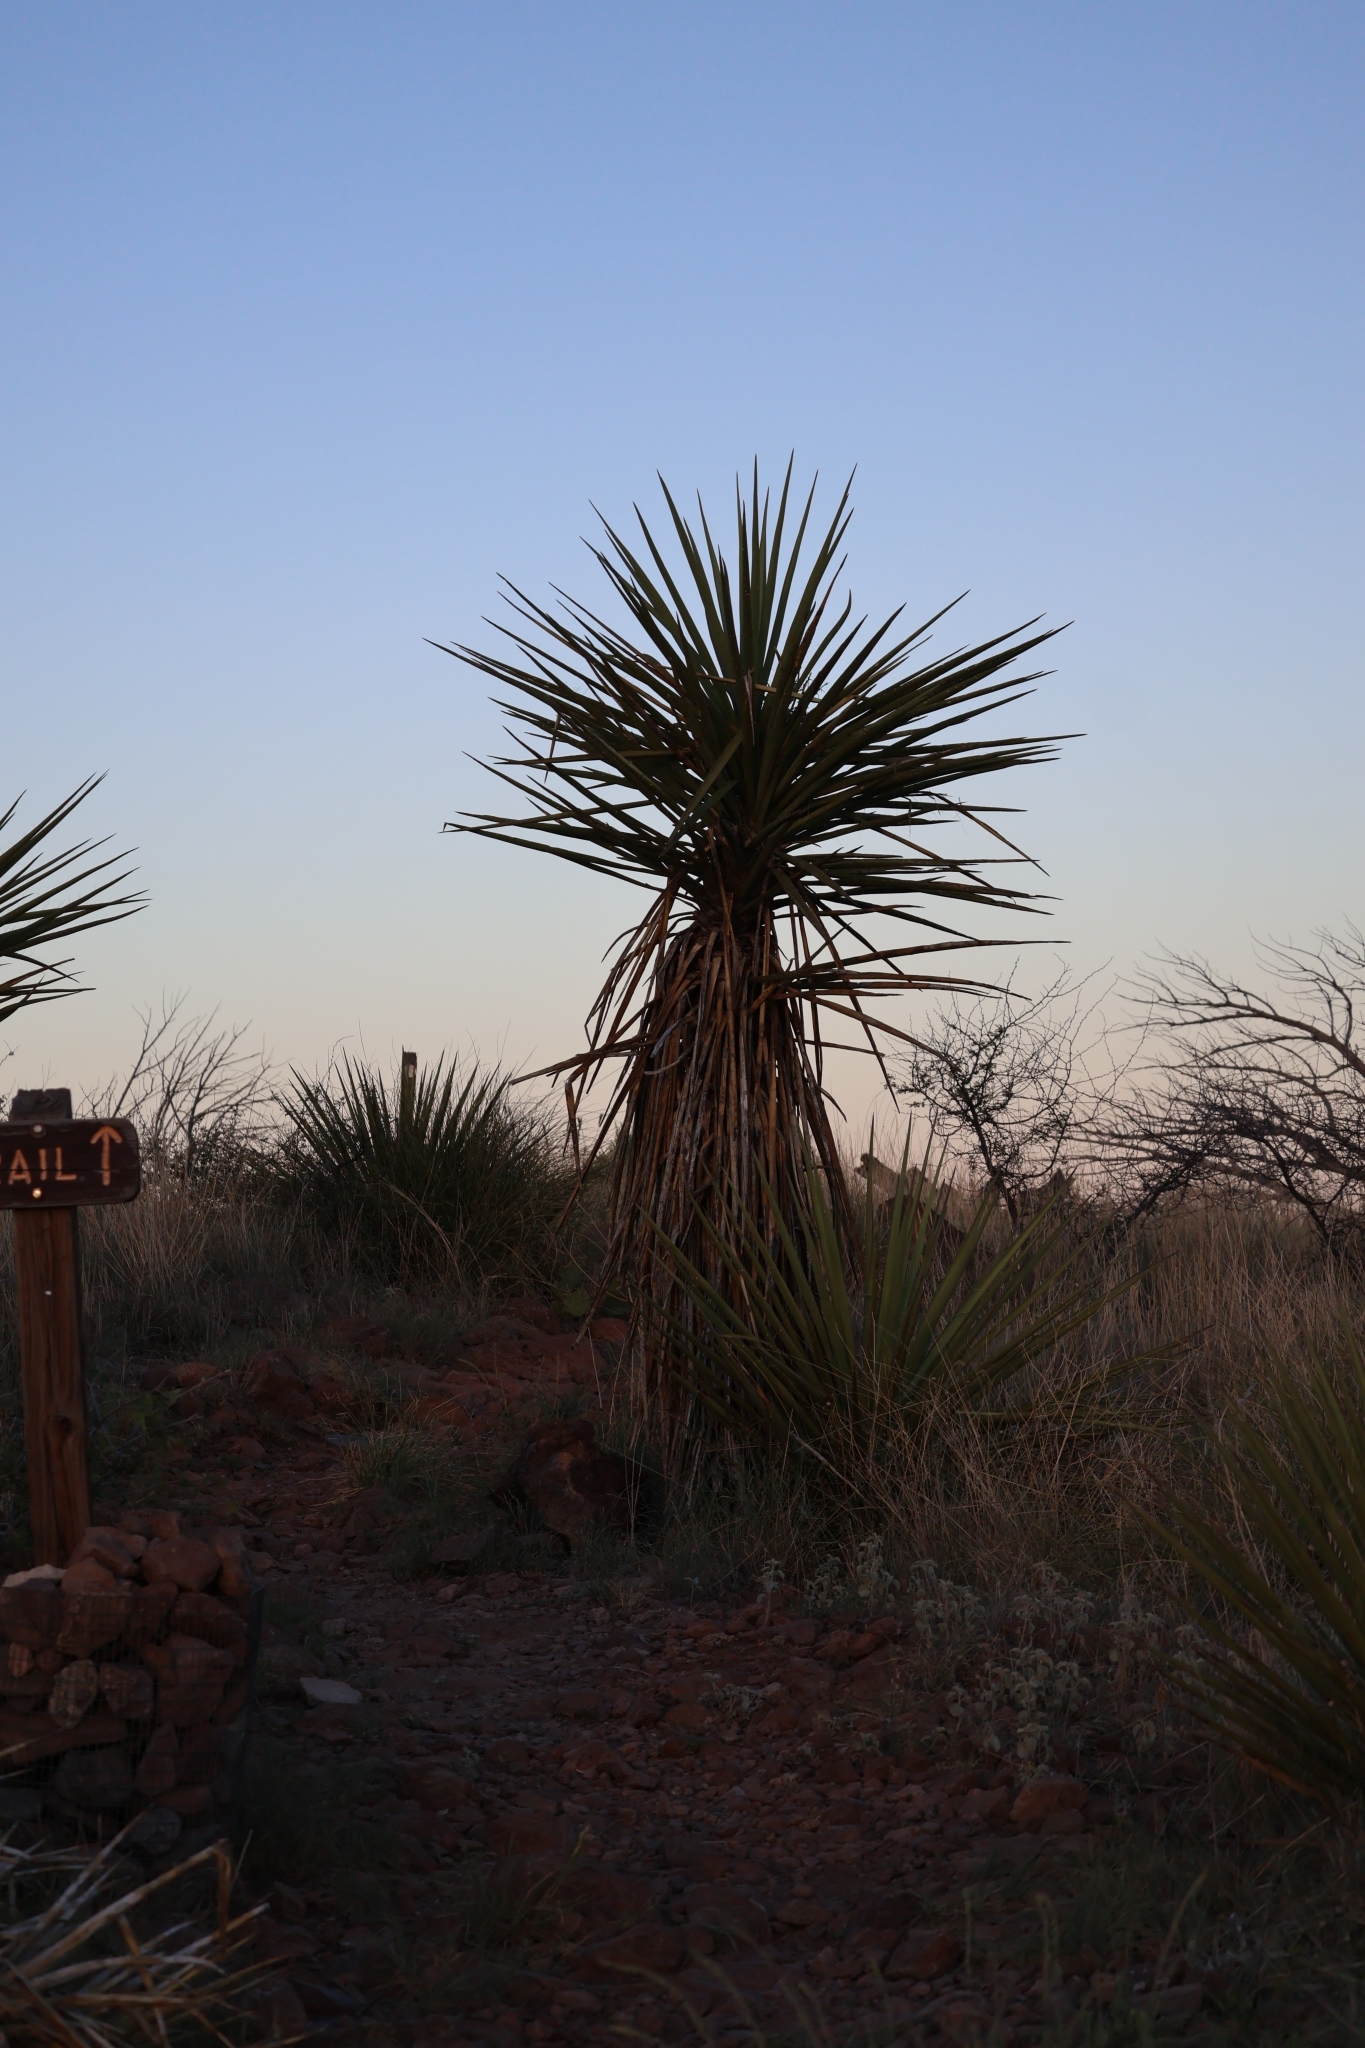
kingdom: Plantae
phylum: Tracheophyta
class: Liliopsida
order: Asparagales
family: Asparagaceae
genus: Yucca
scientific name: Yucca treculiana
